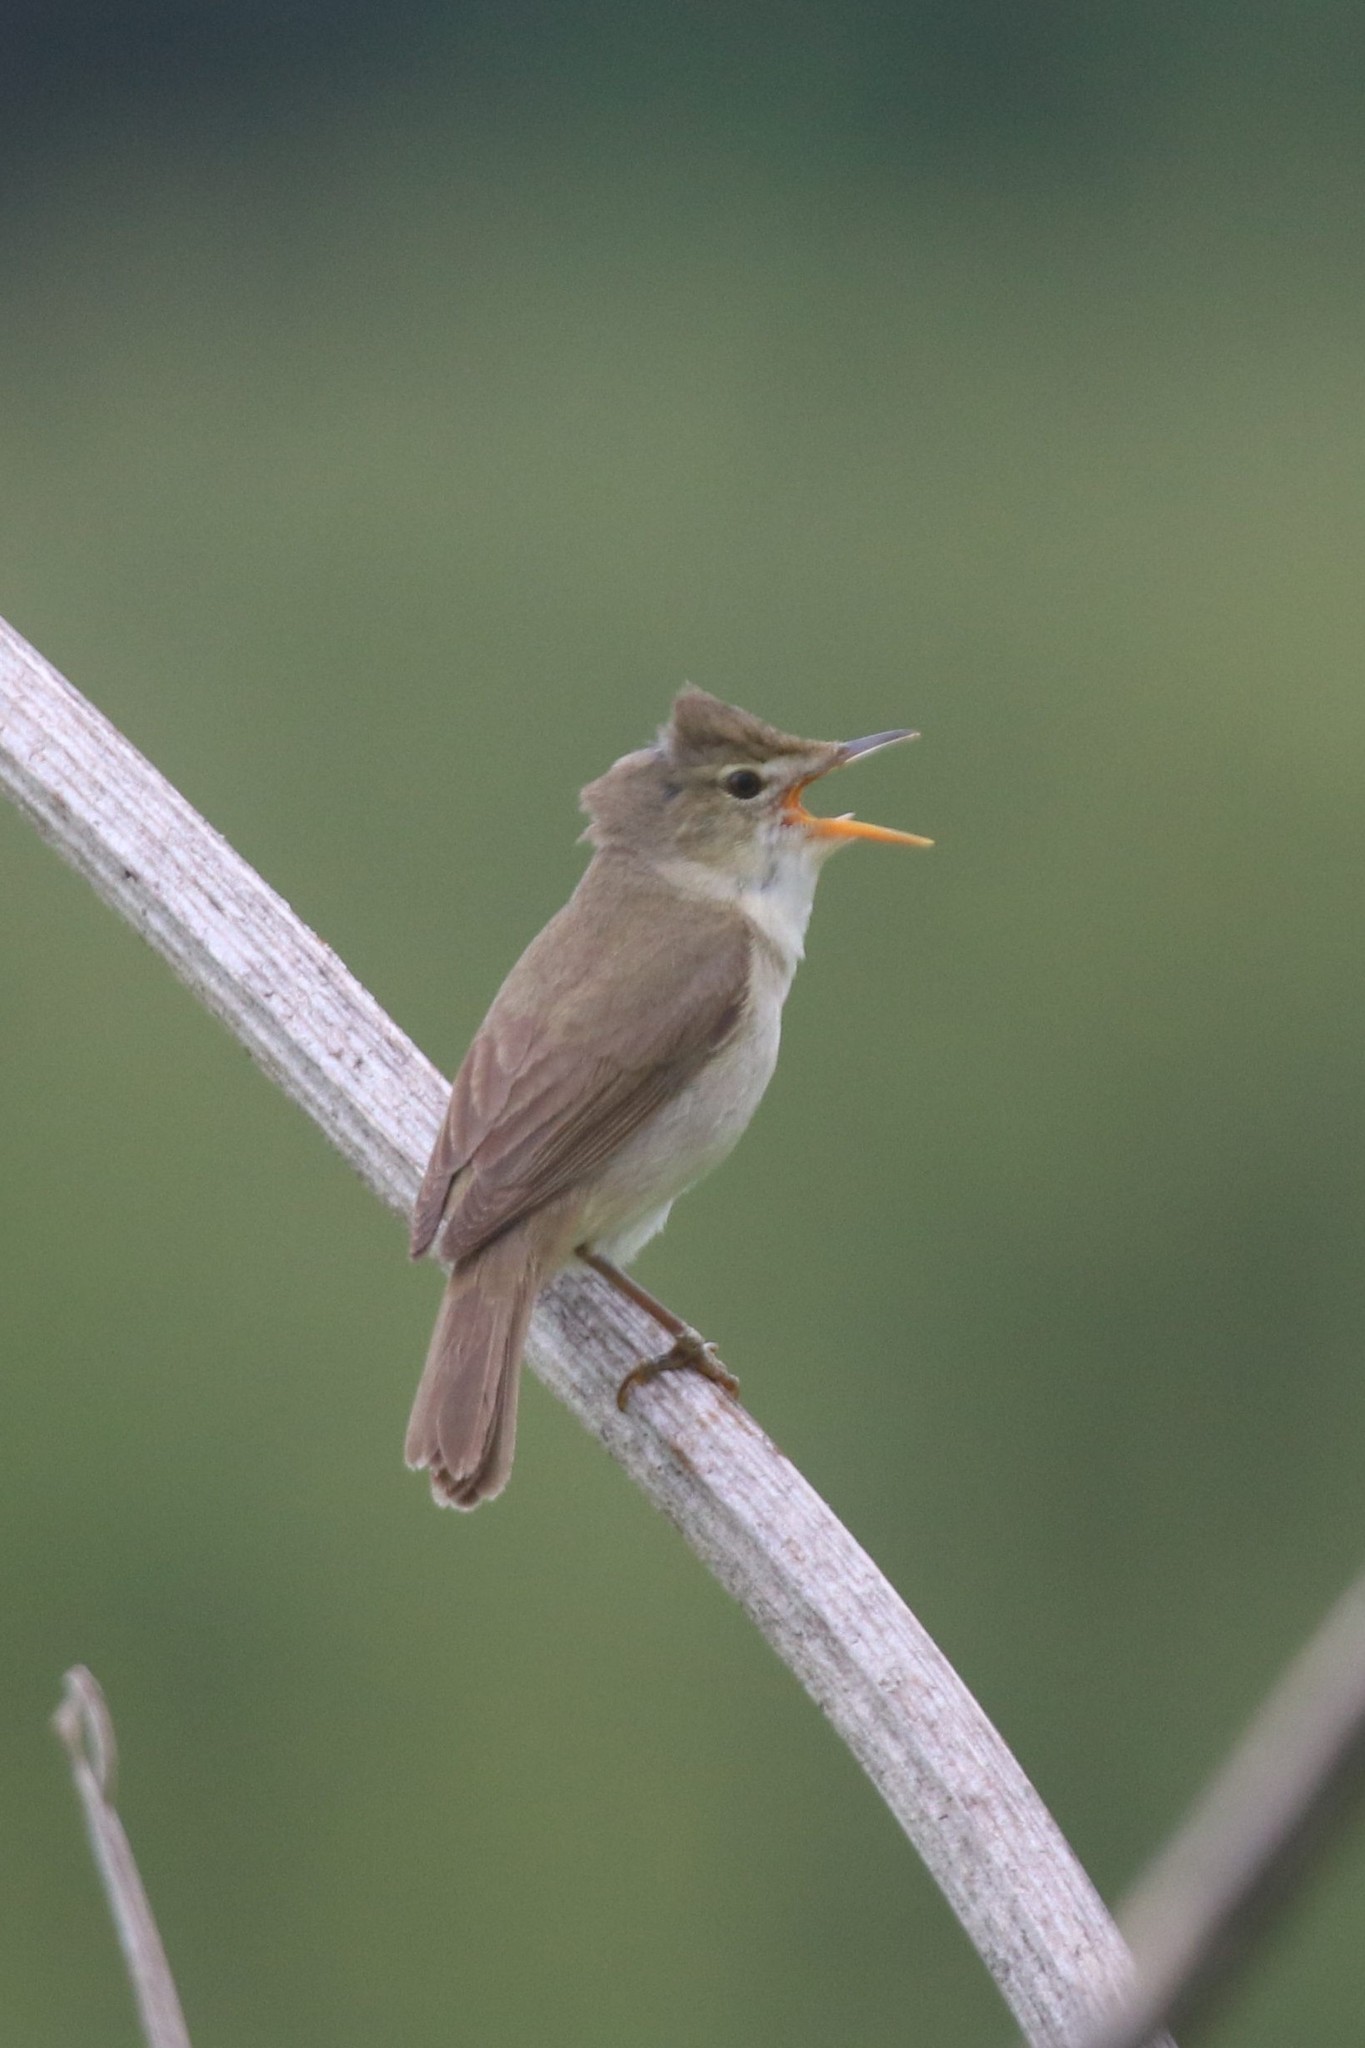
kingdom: Animalia
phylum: Chordata
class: Aves
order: Passeriformes
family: Acrocephalidae
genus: Acrocephalus
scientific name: Acrocephalus dumetorum
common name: Blyth's reed warbler
